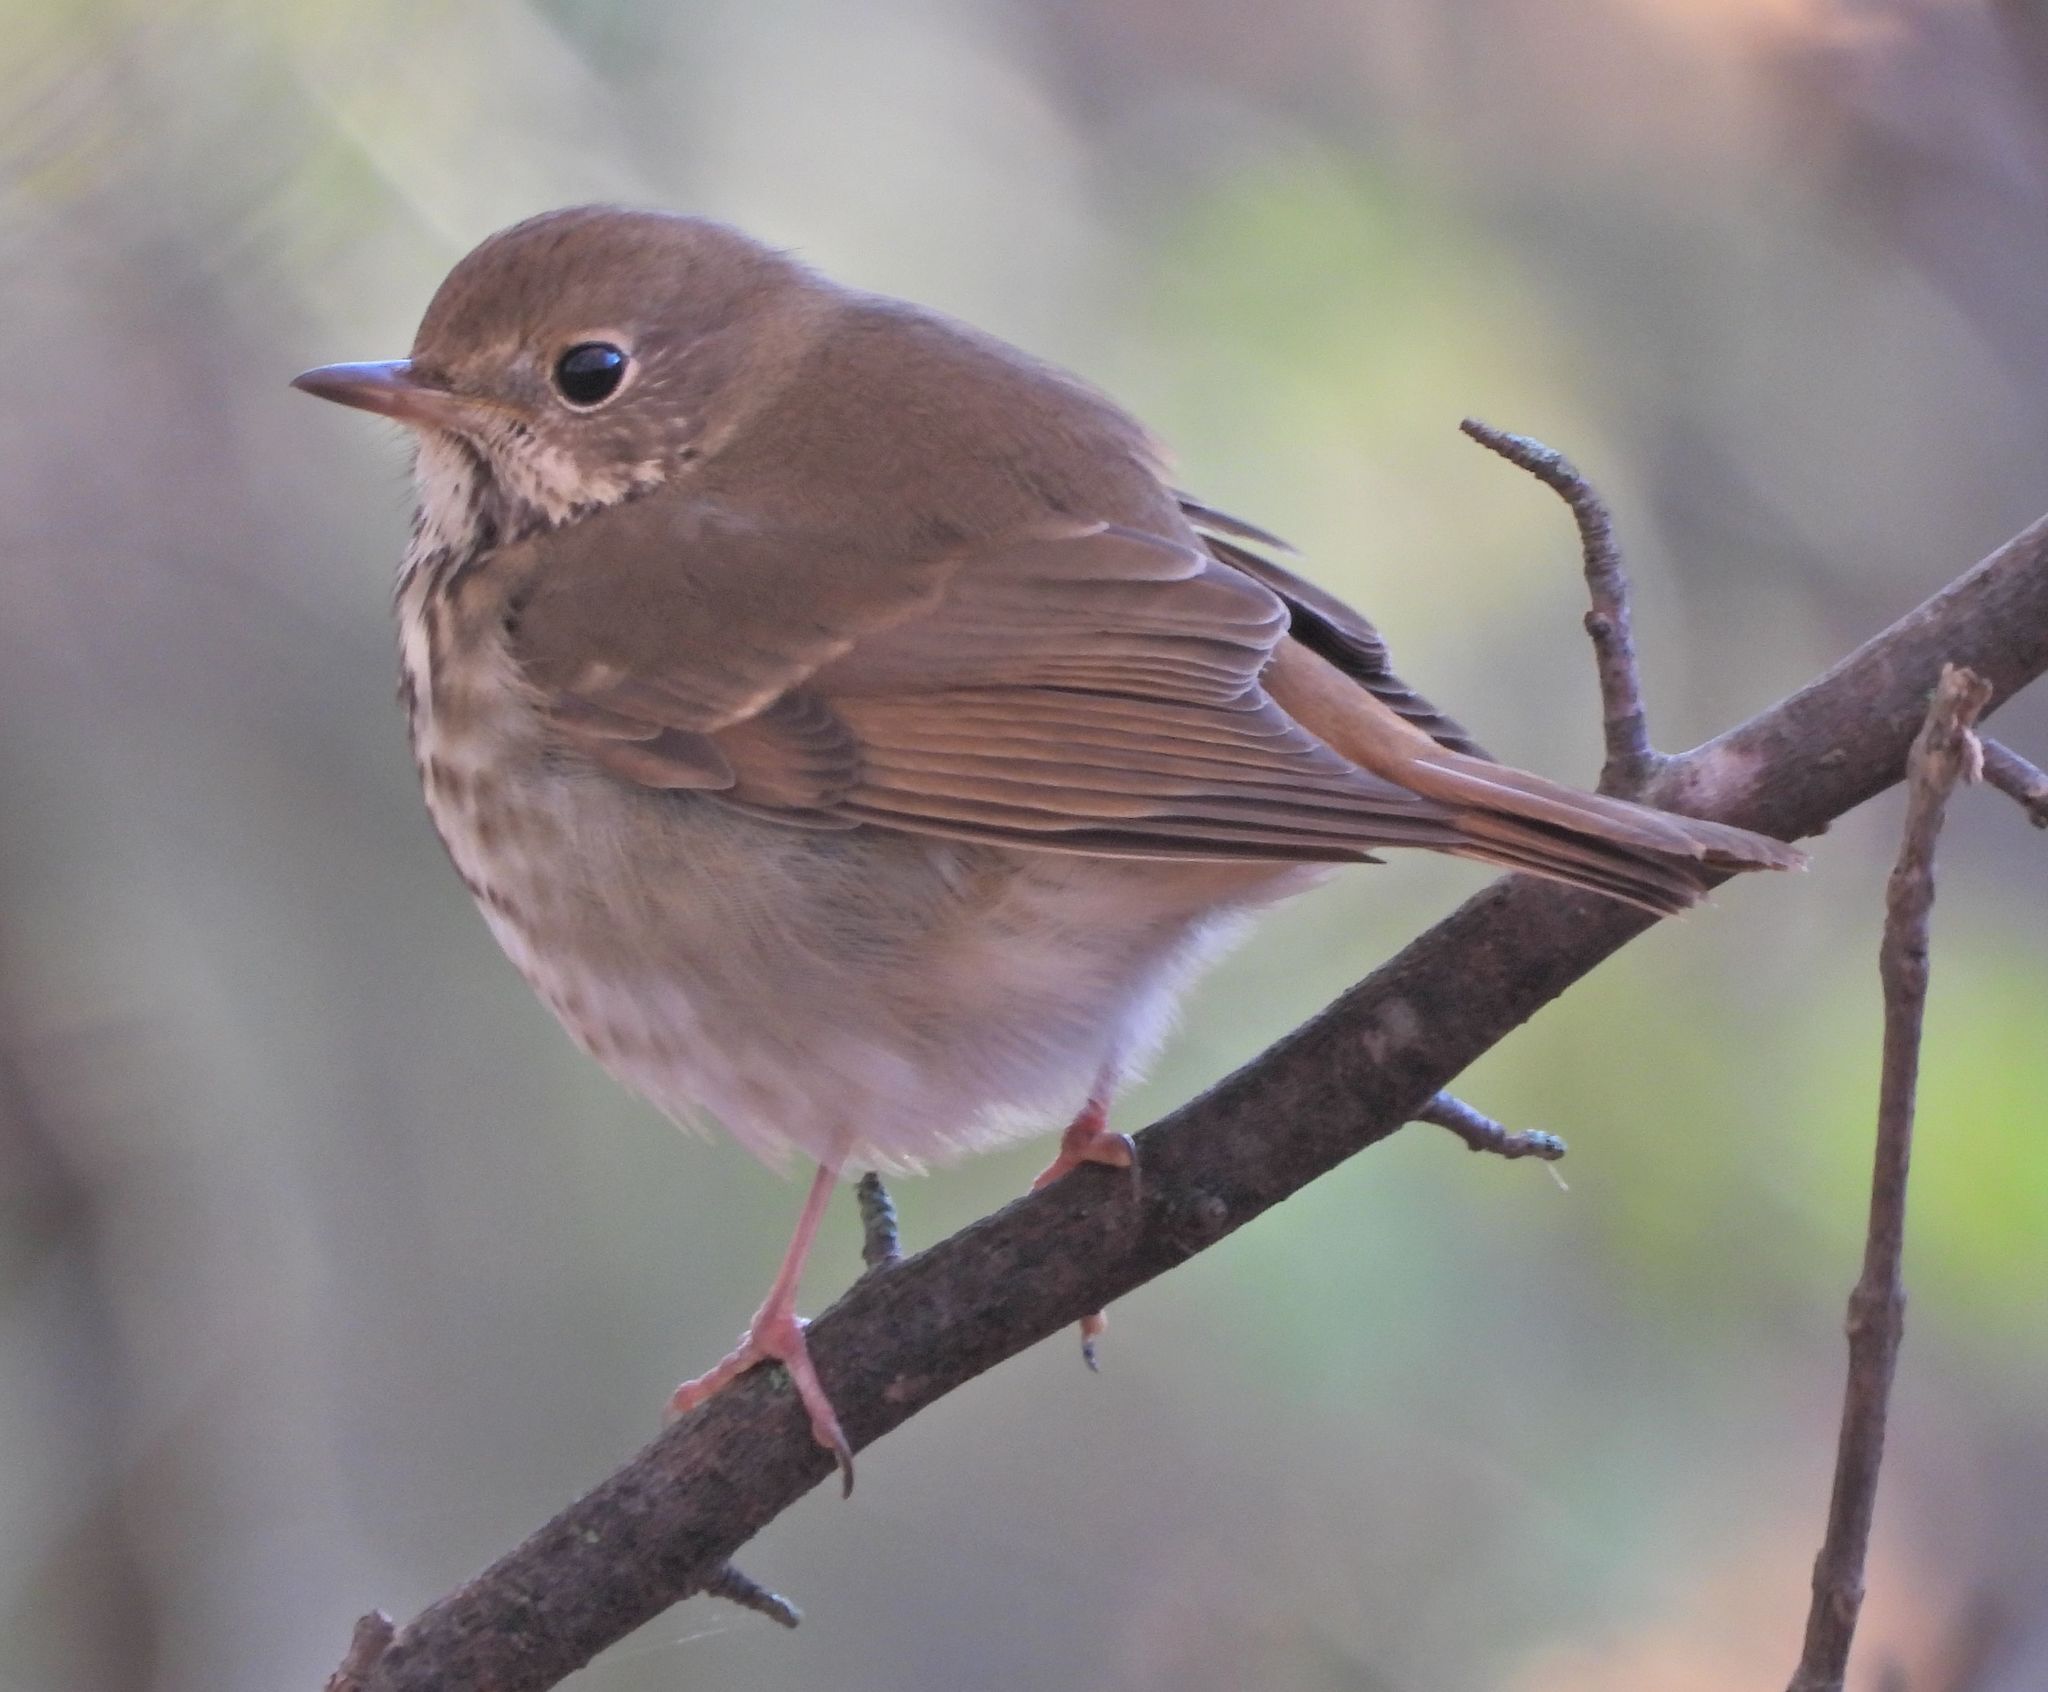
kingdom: Animalia
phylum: Chordata
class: Aves
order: Passeriformes
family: Turdidae
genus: Catharus
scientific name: Catharus guttatus
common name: Hermit thrush
